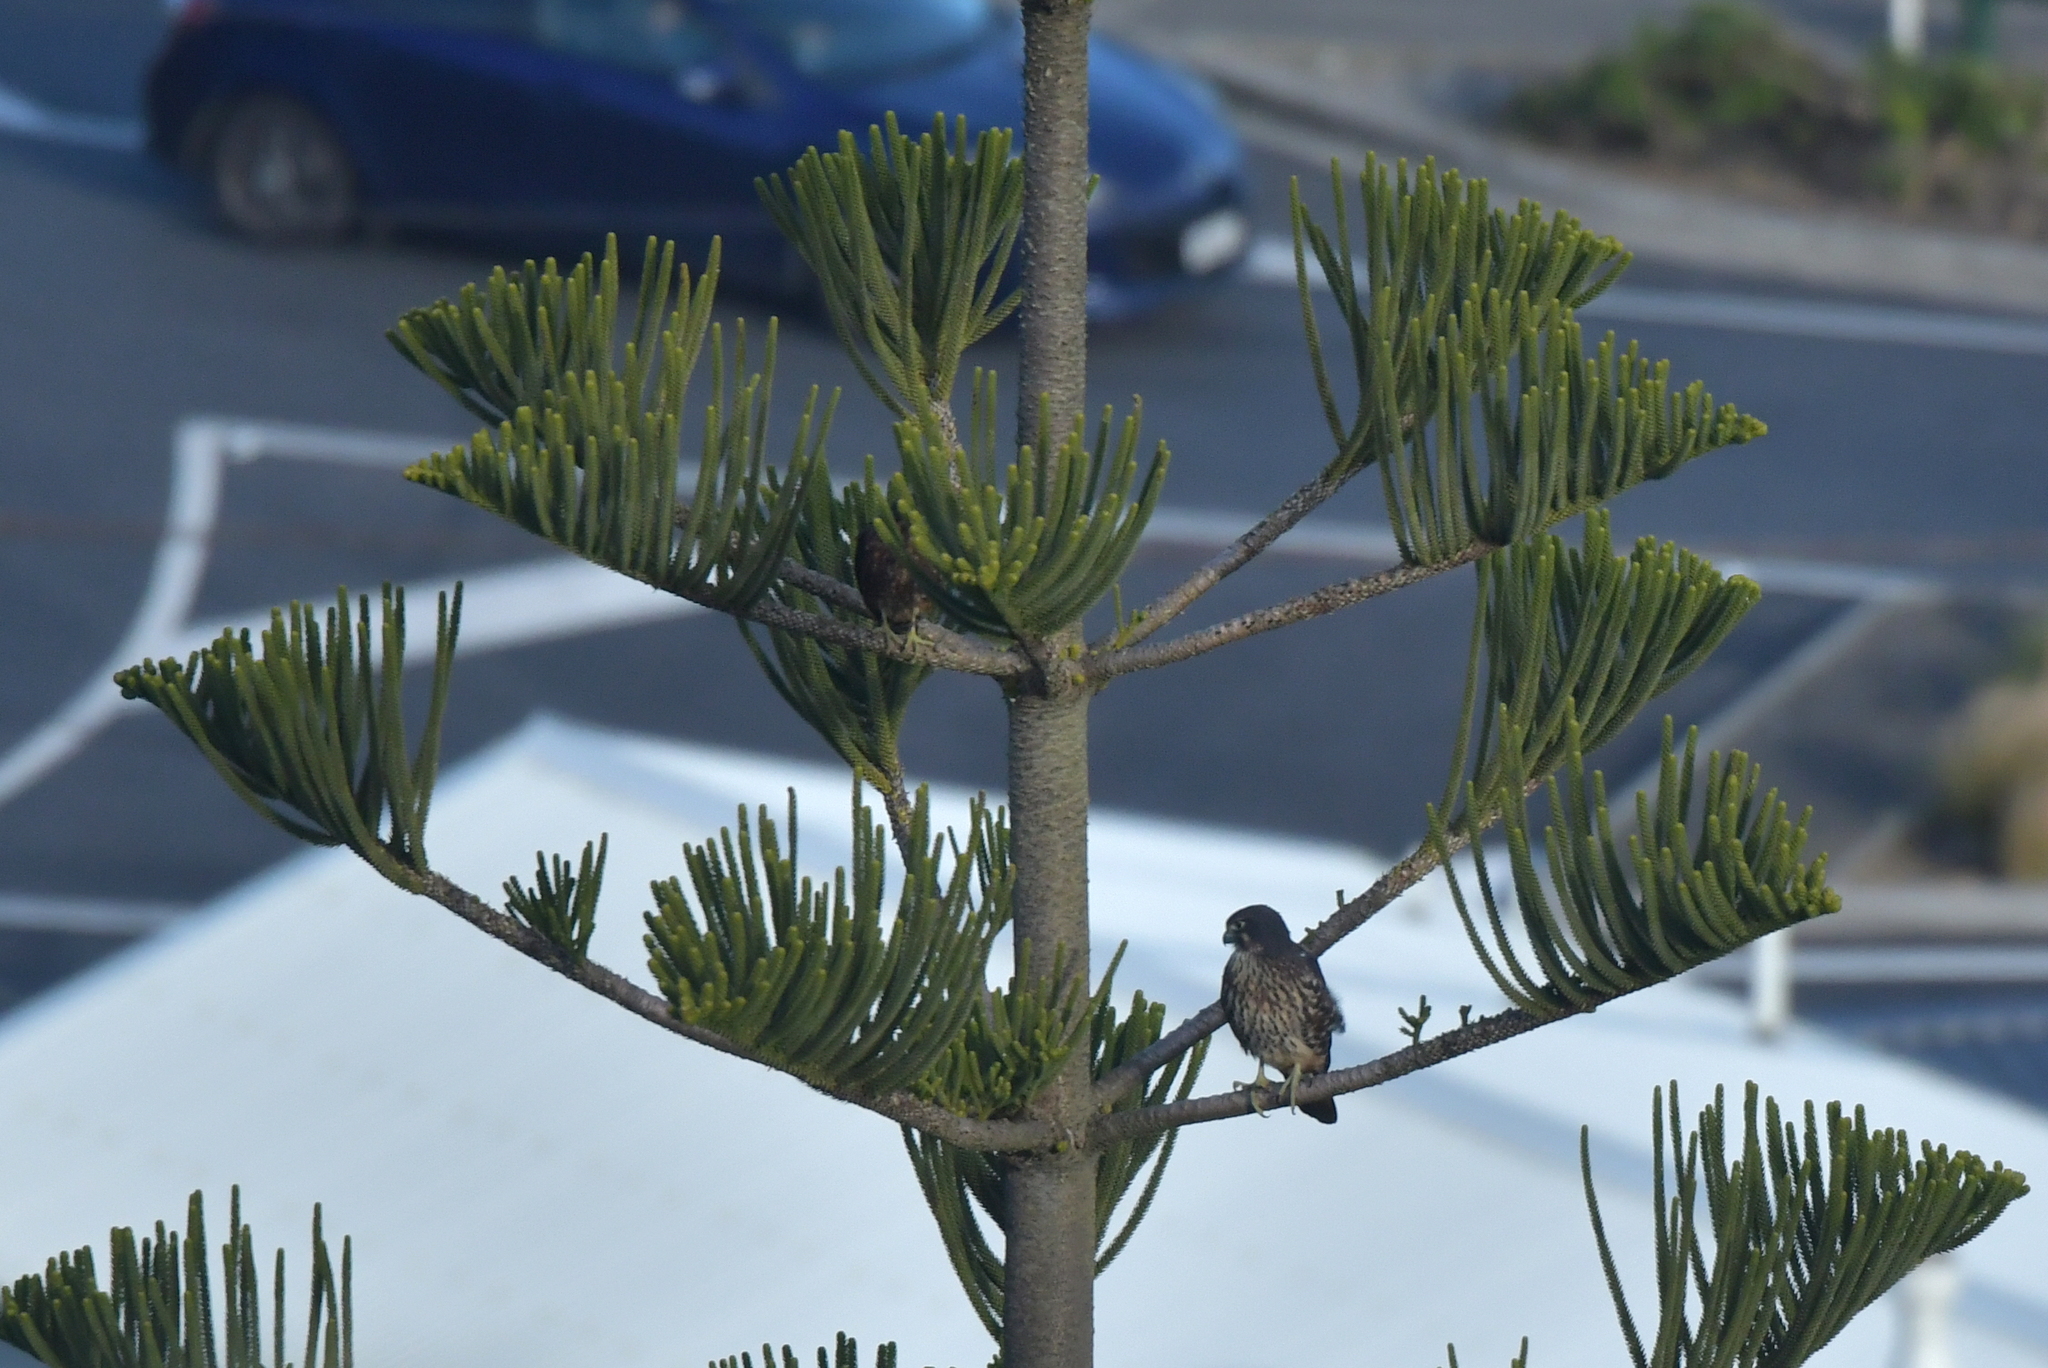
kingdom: Animalia
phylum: Chordata
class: Aves
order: Falconiformes
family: Falconidae
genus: Falco
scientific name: Falco novaeseelandiae
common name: New zealand falcon
